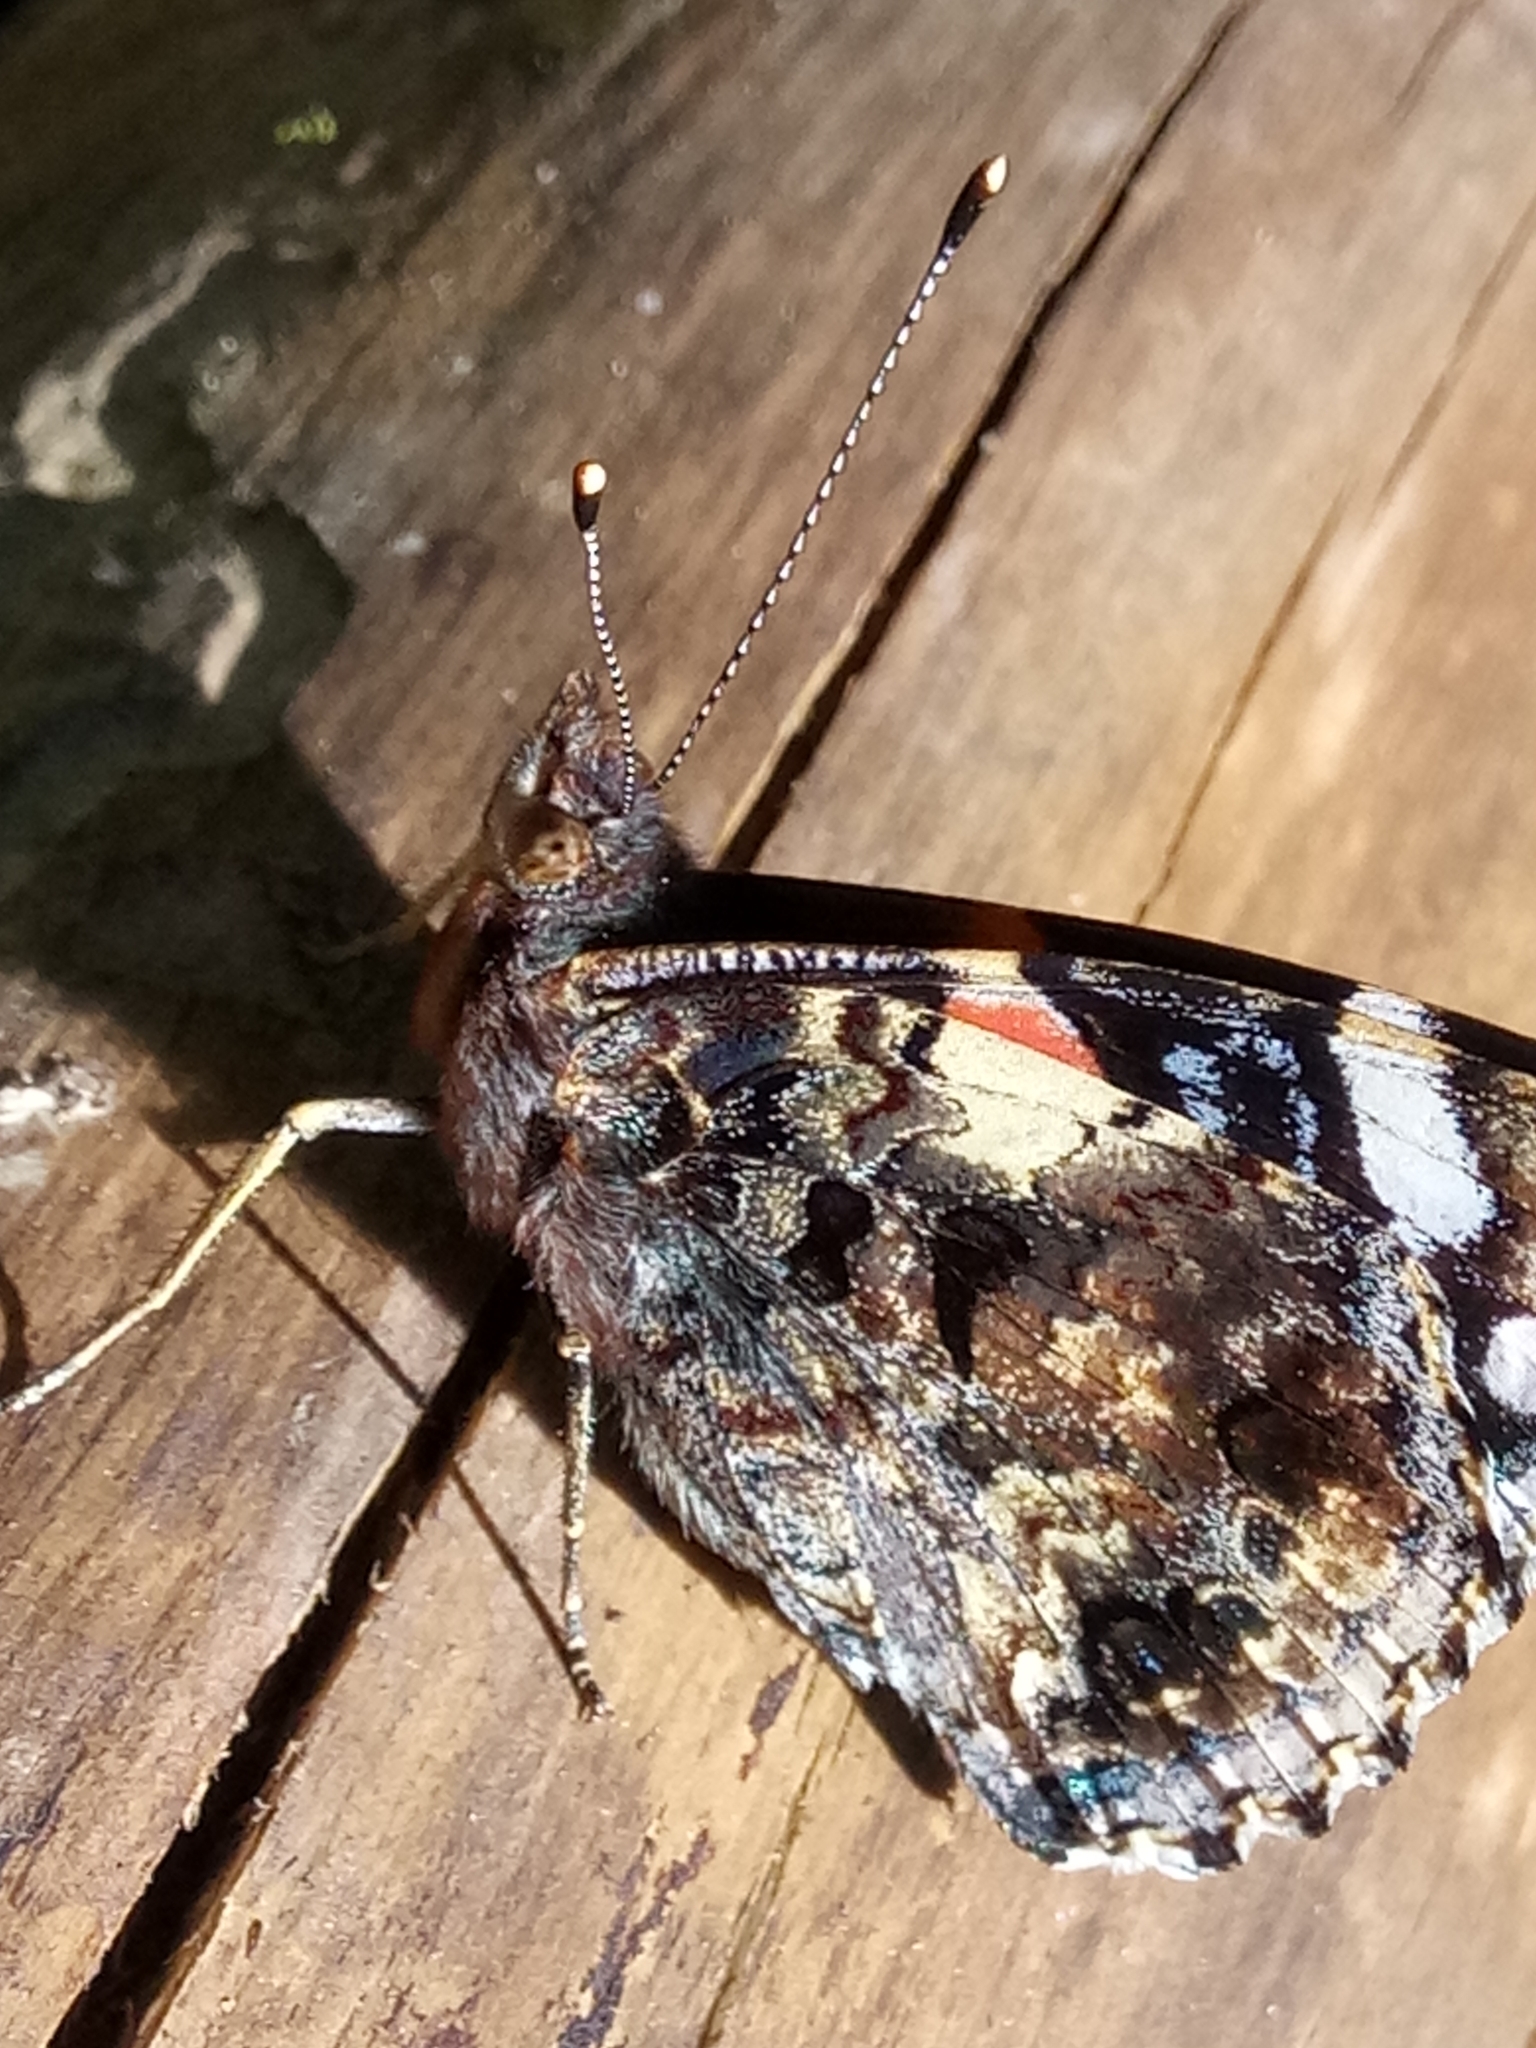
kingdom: Animalia
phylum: Arthropoda
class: Insecta
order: Lepidoptera
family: Nymphalidae
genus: Vanessa
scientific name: Vanessa atalanta
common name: Red admiral
